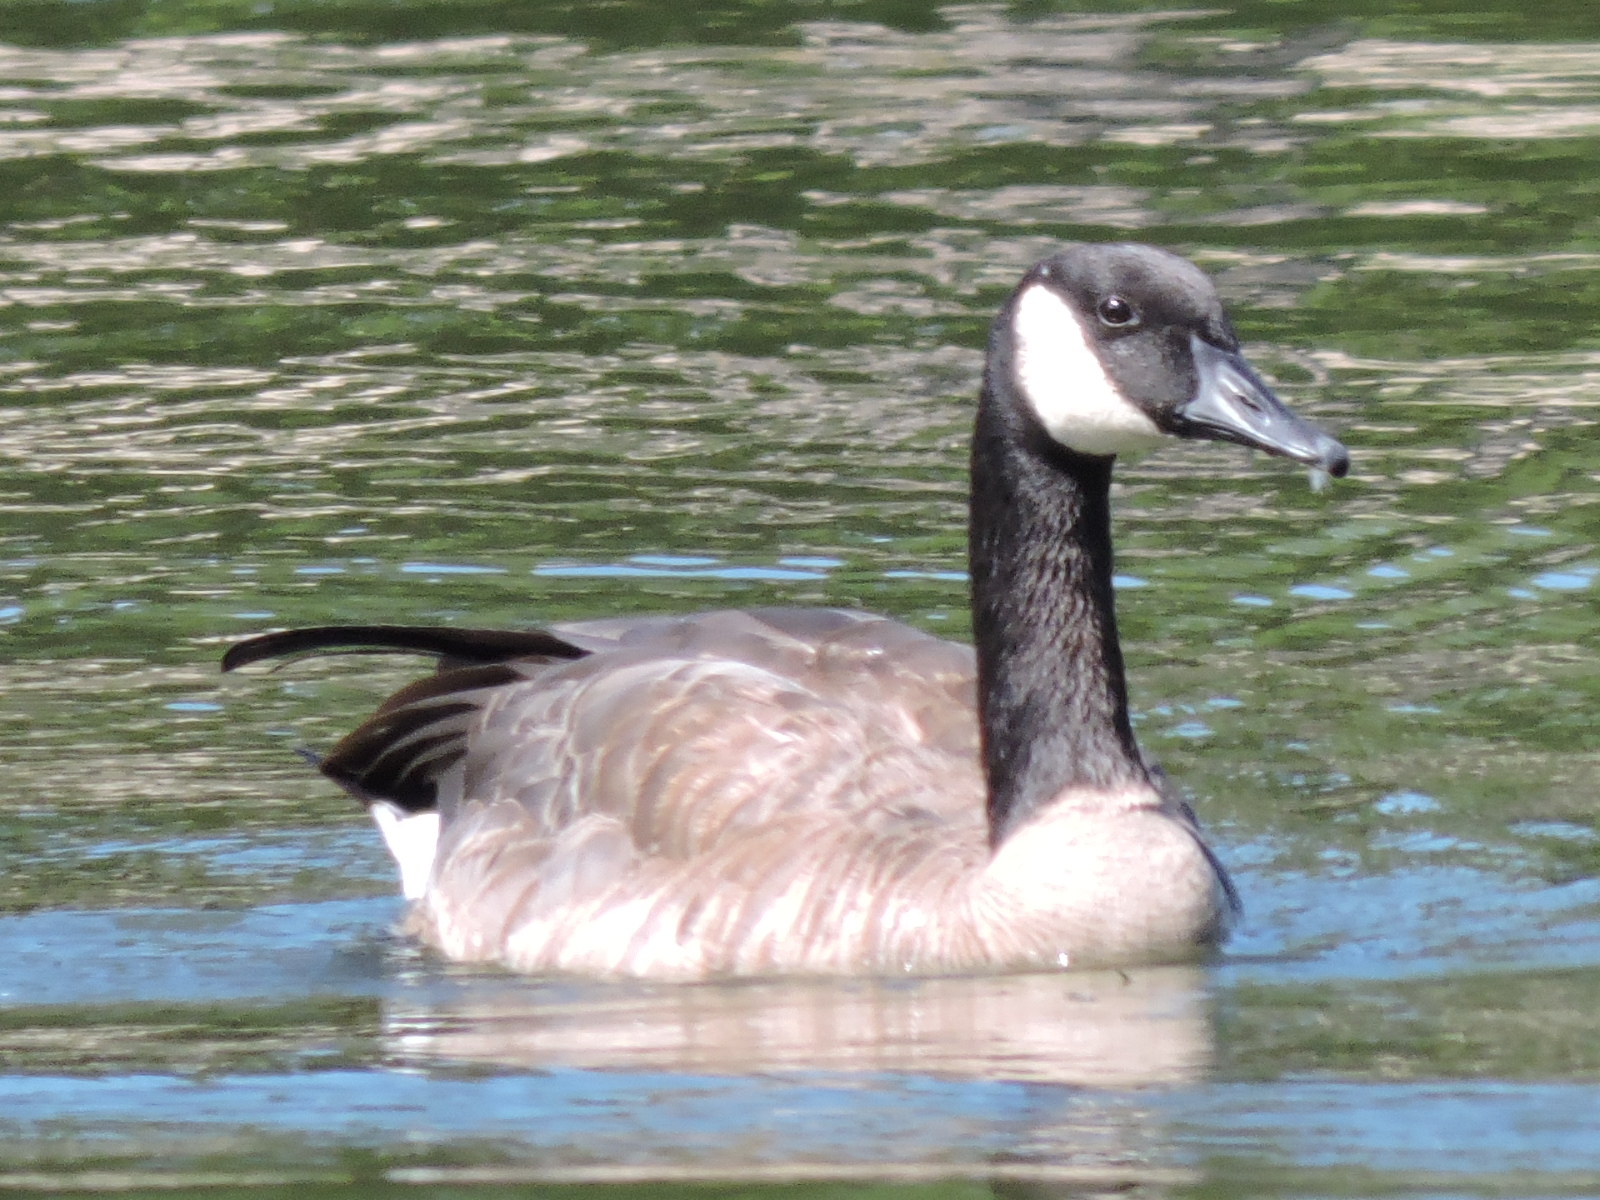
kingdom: Animalia
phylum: Chordata
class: Aves
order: Anseriformes
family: Anatidae
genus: Branta
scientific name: Branta canadensis
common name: Canada goose
